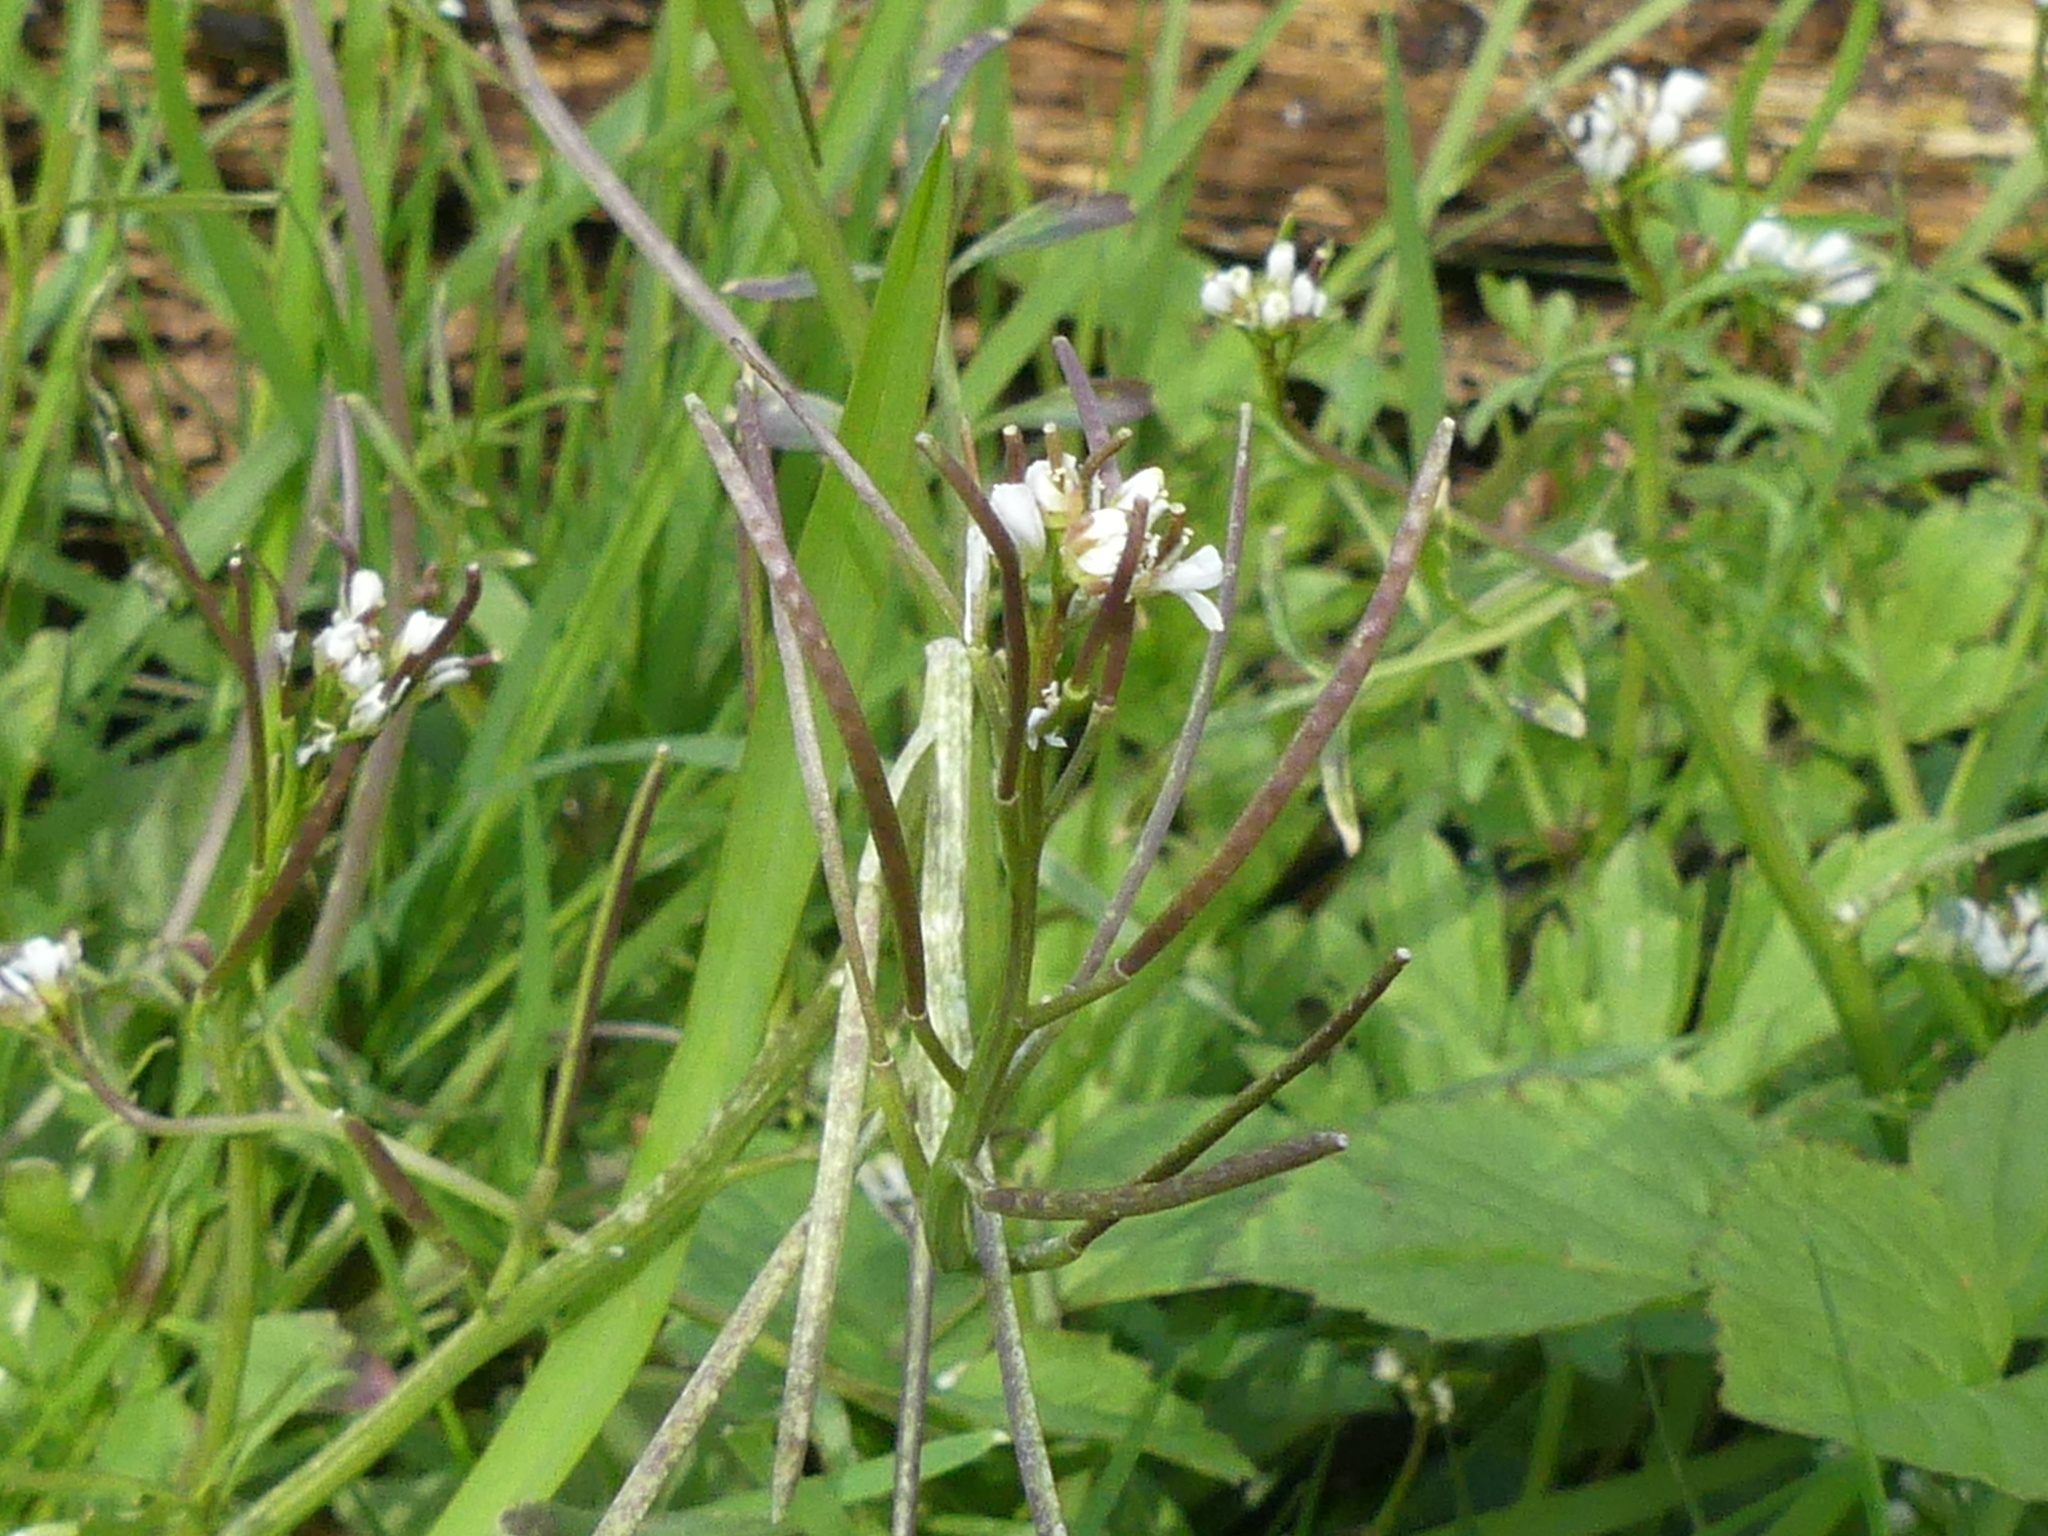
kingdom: Plantae
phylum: Tracheophyta
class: Magnoliopsida
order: Brassicales
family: Brassicaceae
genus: Cardamine
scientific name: Cardamine hirsuta
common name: Hairy bittercress
